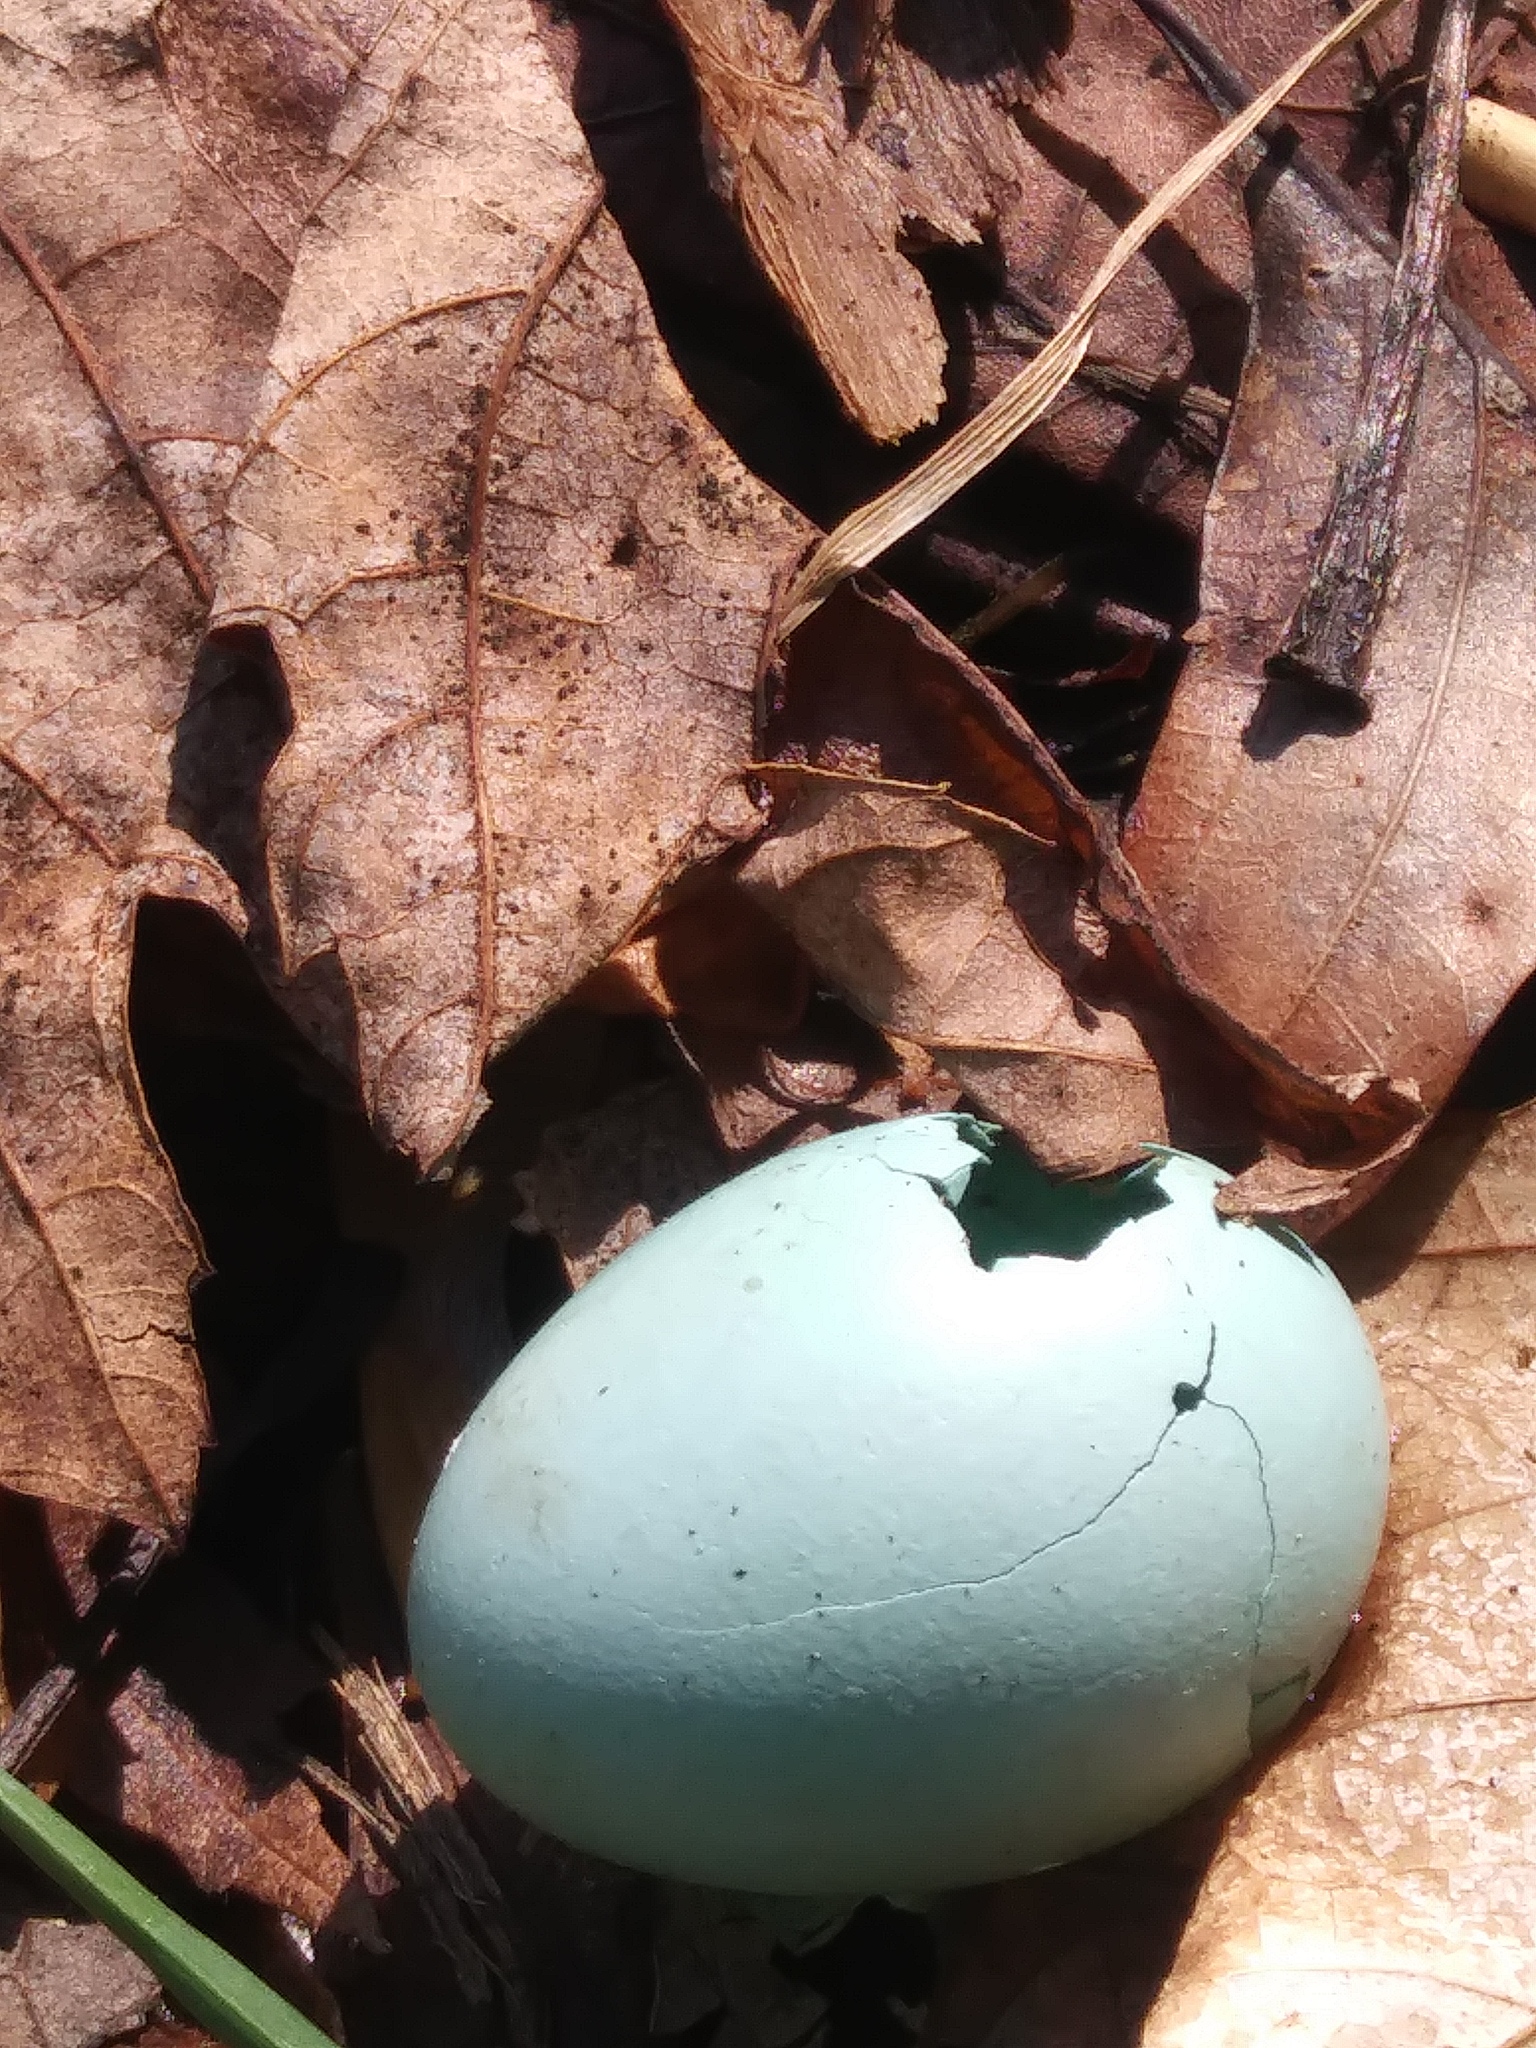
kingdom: Animalia
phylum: Chordata
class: Aves
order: Passeriformes
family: Turdidae
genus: Turdus
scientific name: Turdus migratorius
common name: American robin
